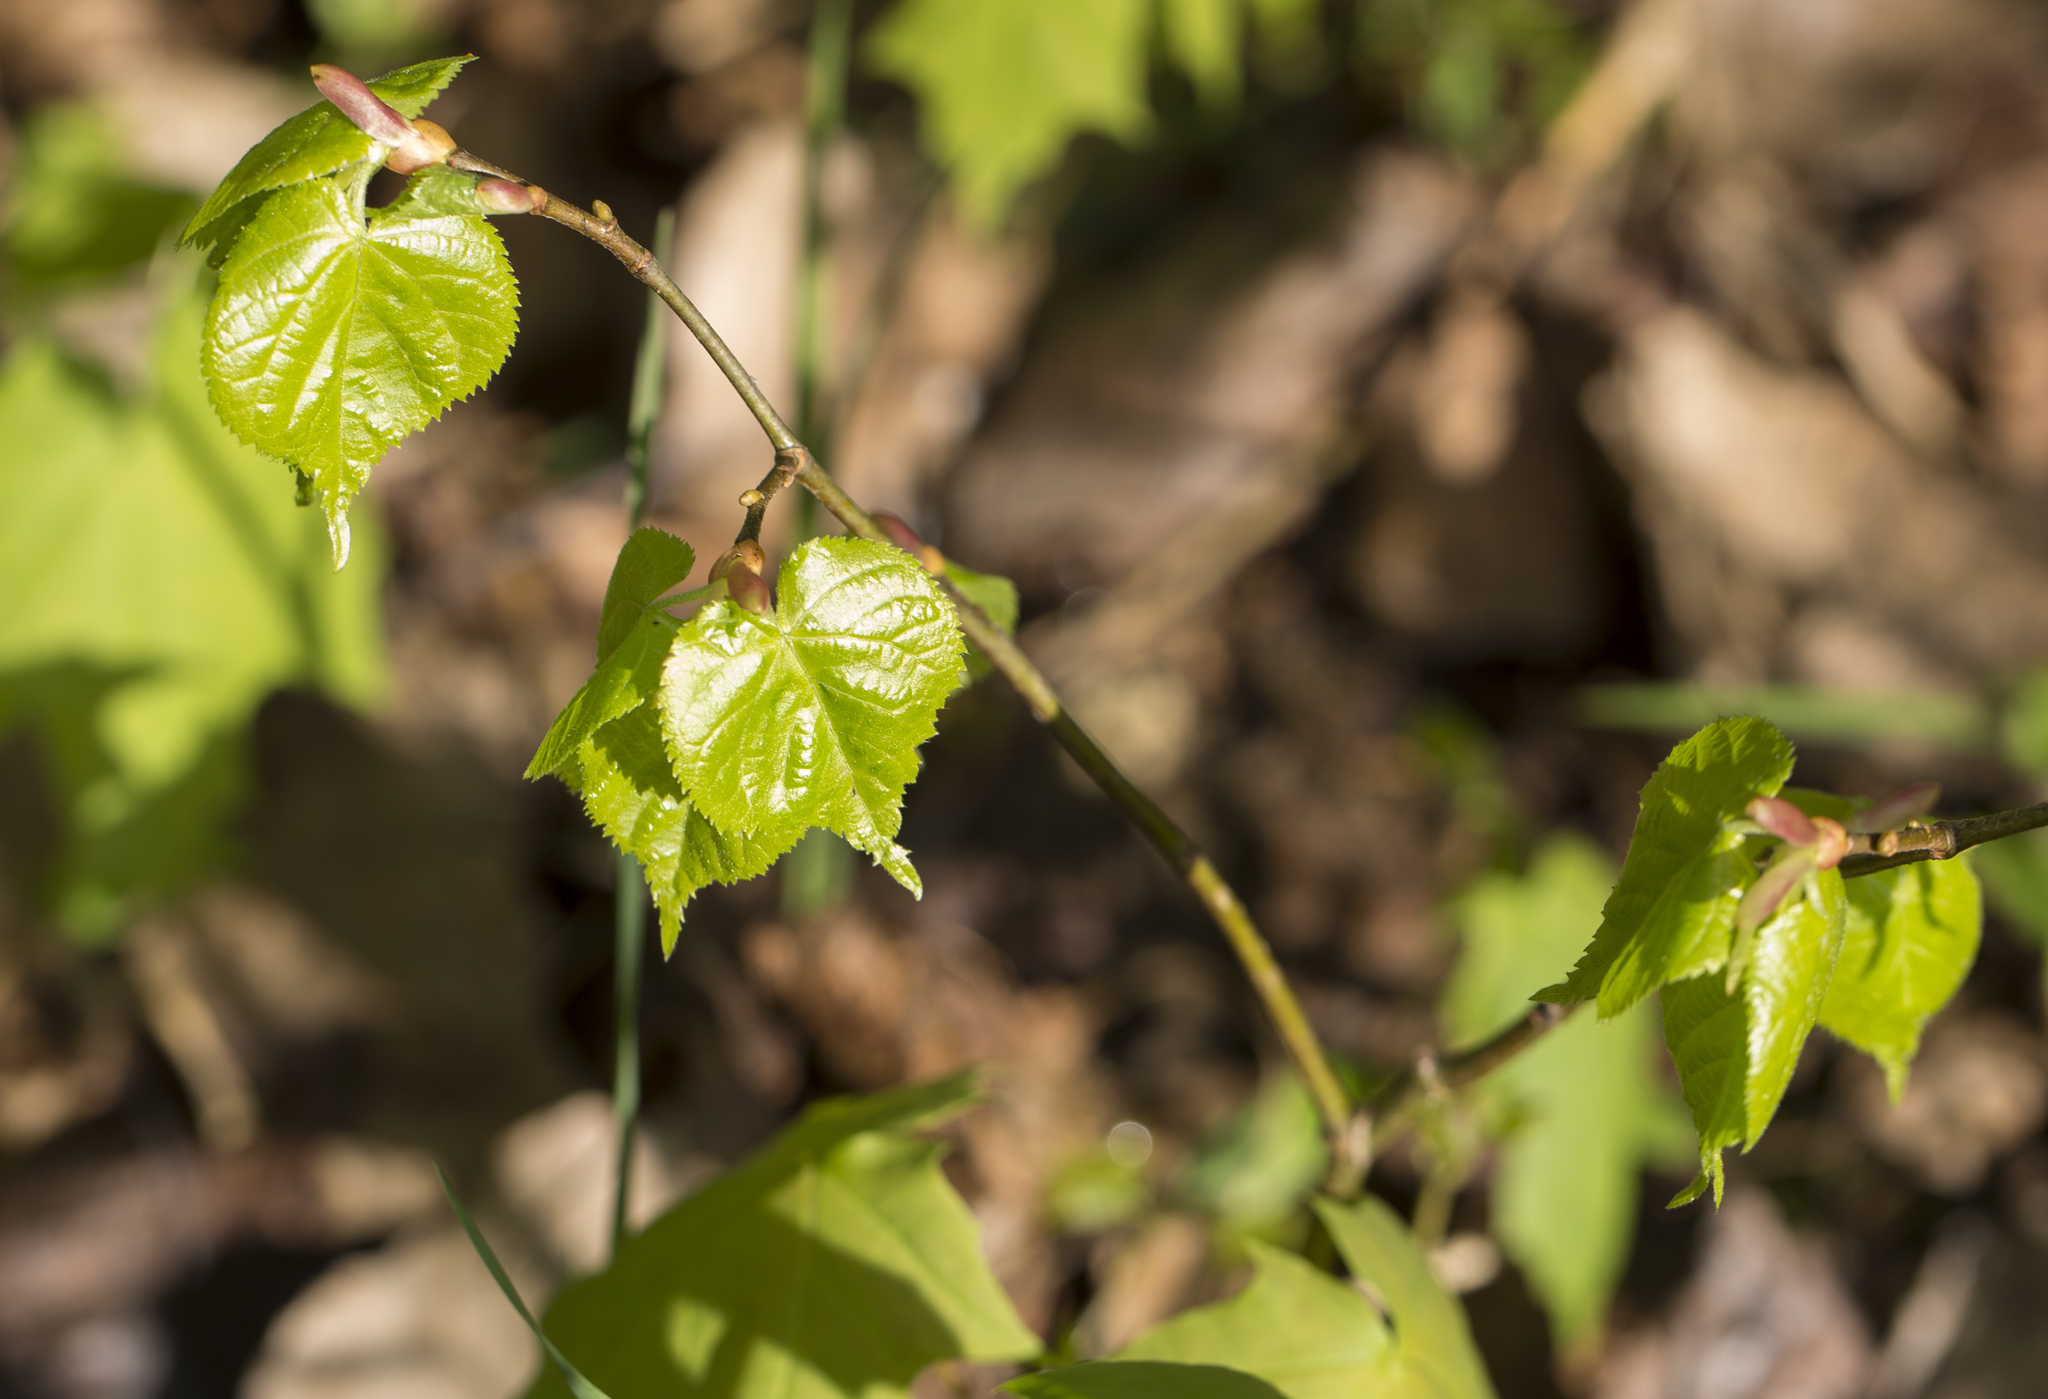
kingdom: Plantae
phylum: Tracheophyta
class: Magnoliopsida
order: Malvales
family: Malvaceae
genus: Tilia
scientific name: Tilia cordata
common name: Small-leaved lime
